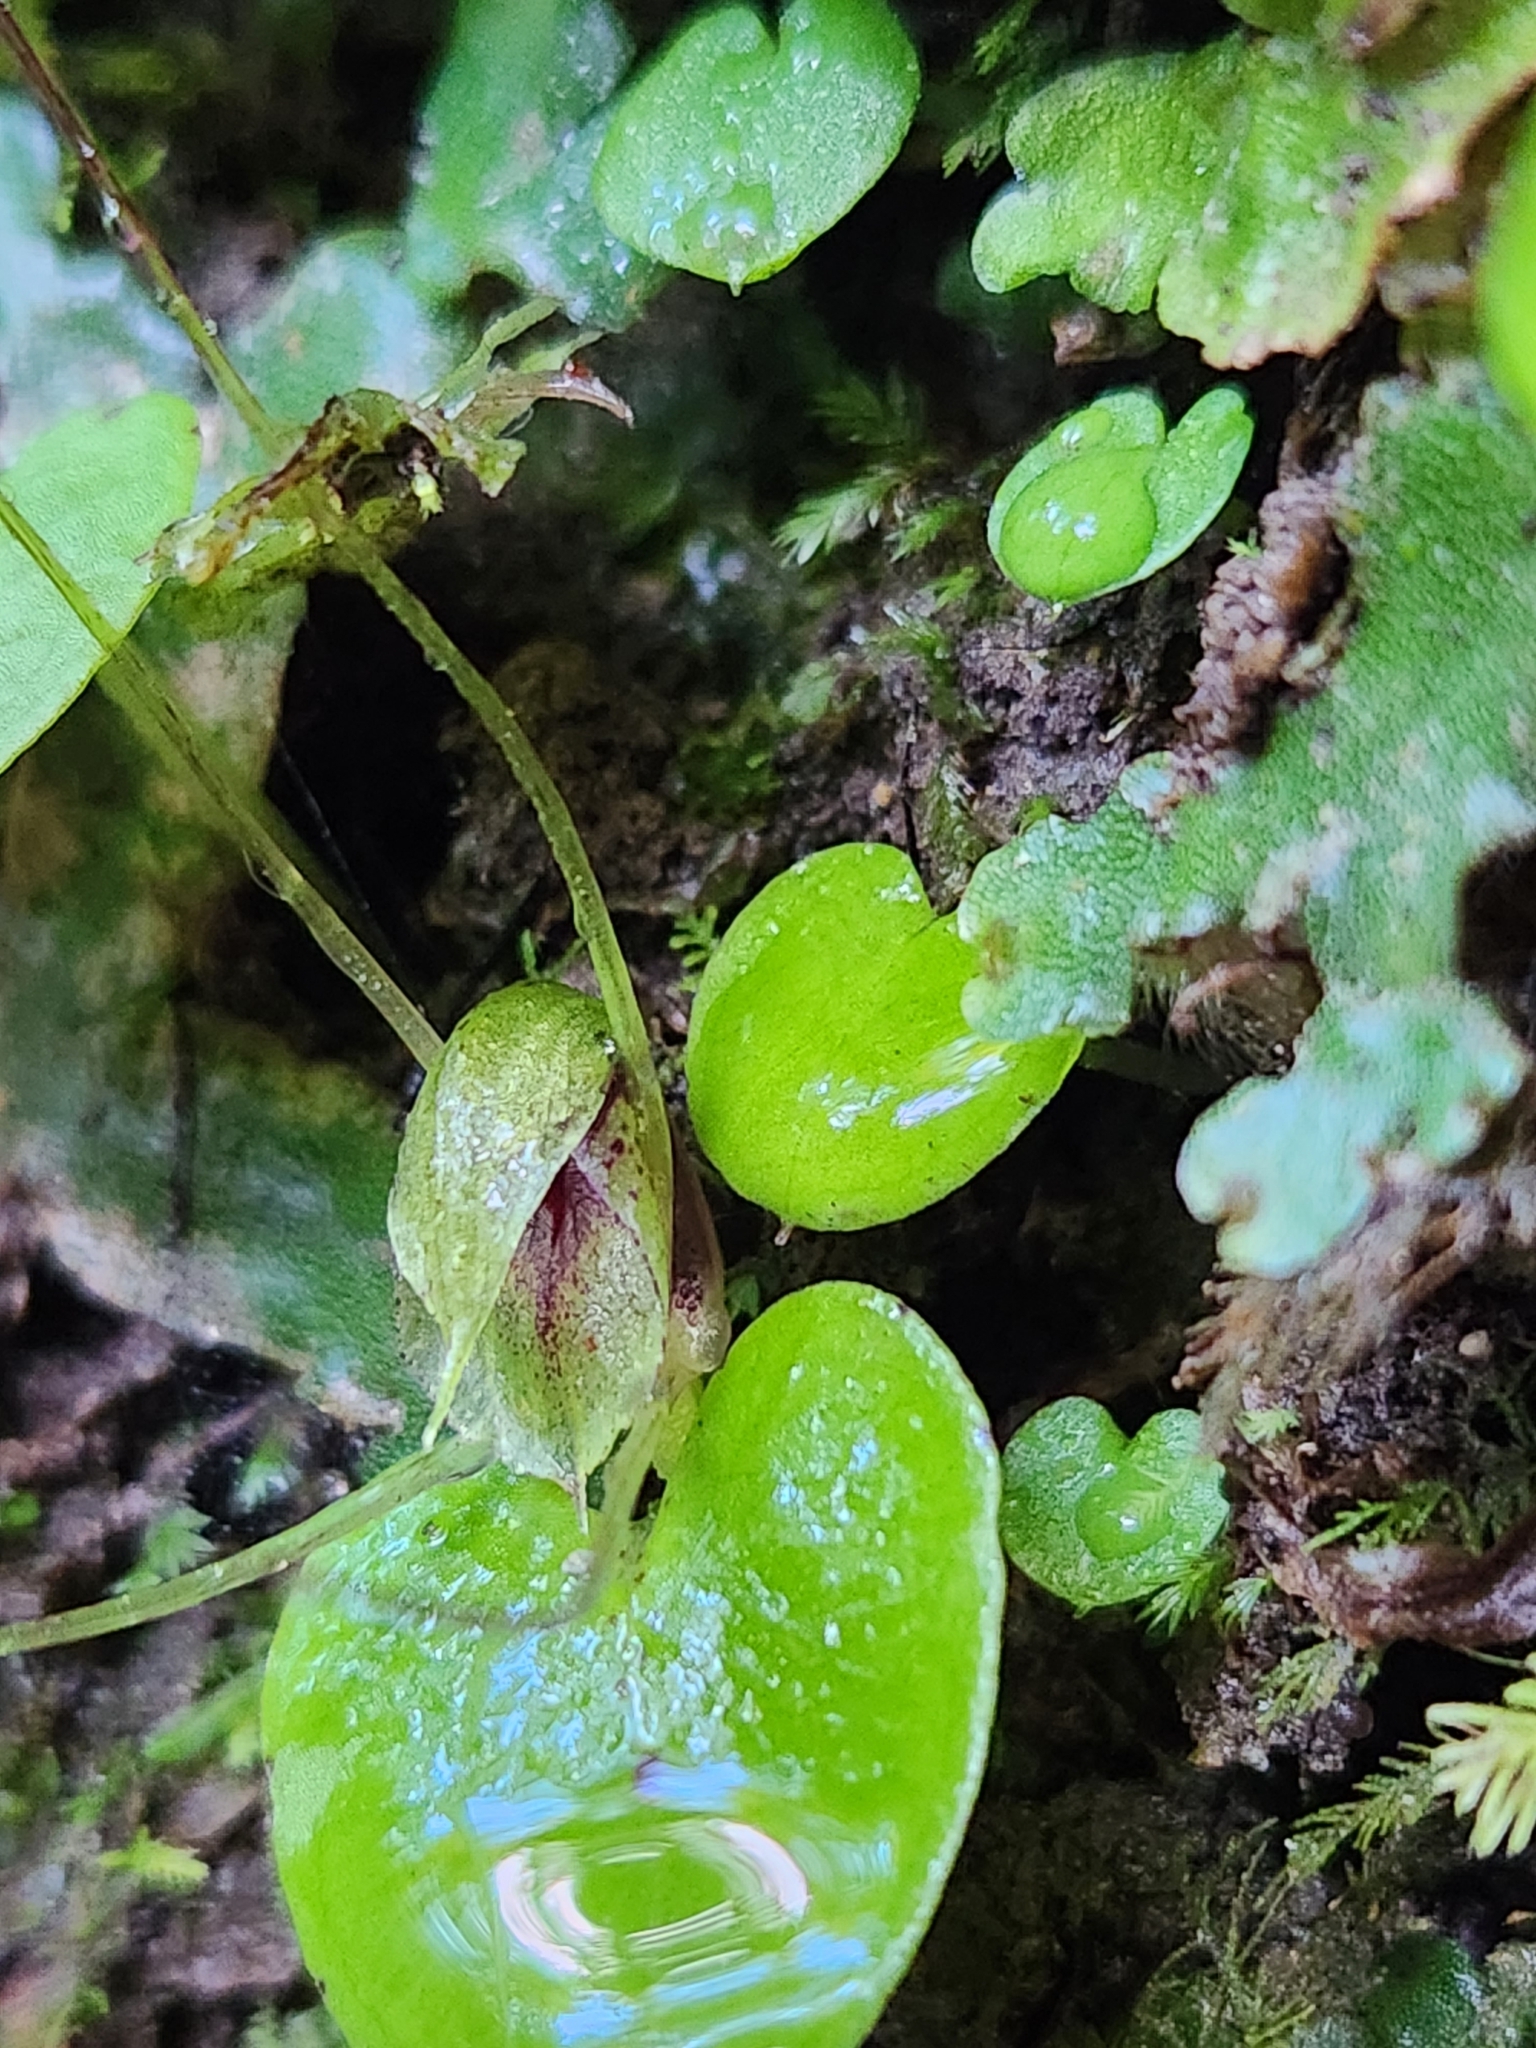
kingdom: Plantae
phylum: Tracheophyta
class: Liliopsida
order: Asparagales
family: Orchidaceae
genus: Corybas
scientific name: Corybas hatchii
